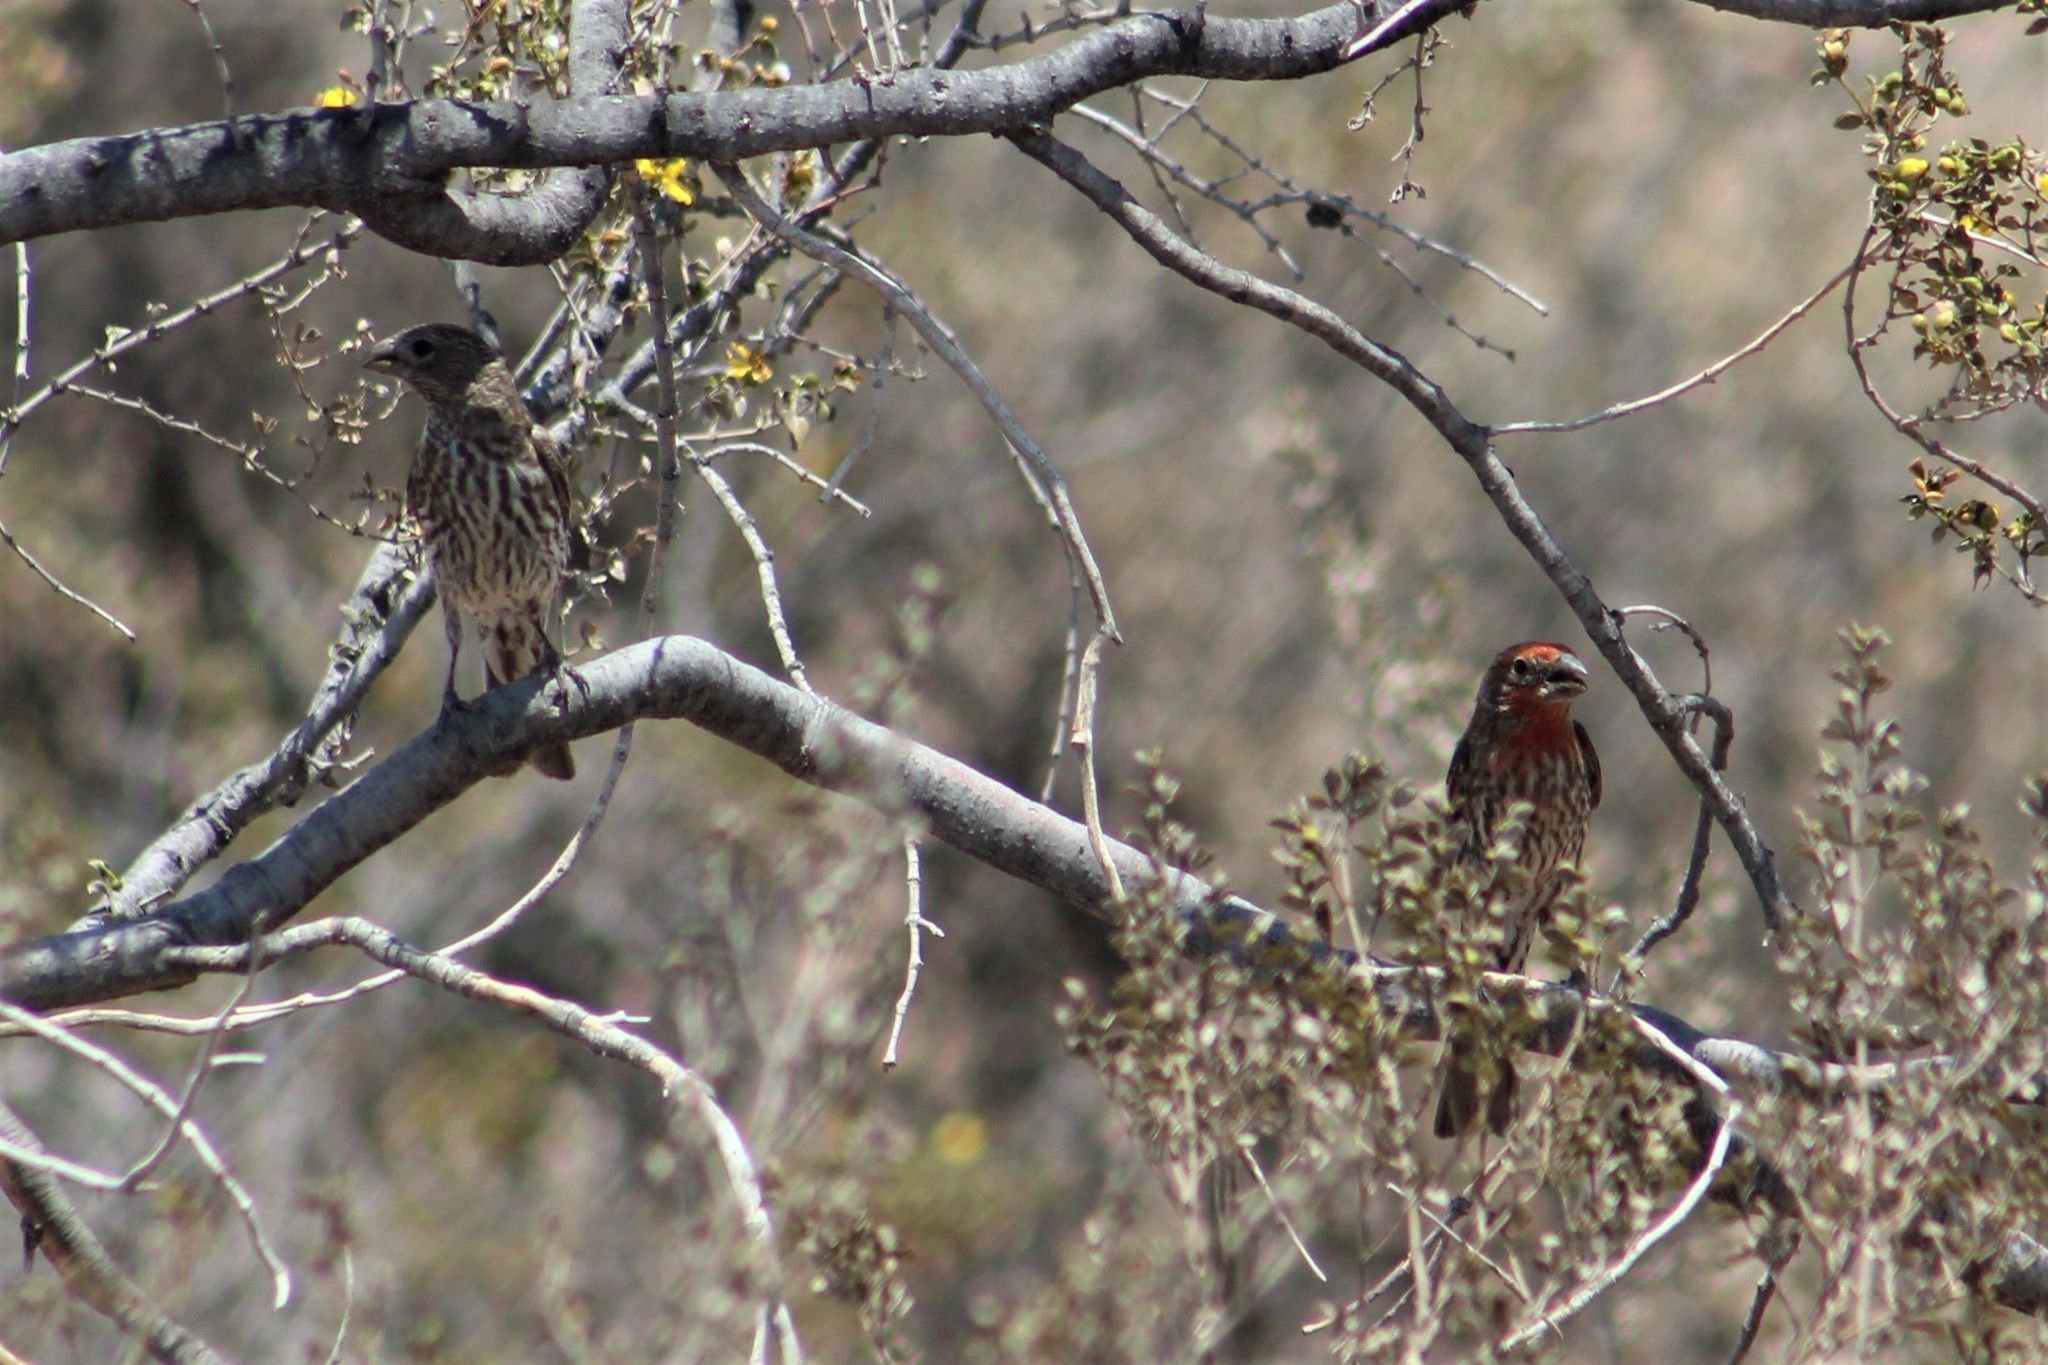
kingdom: Animalia
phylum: Chordata
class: Aves
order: Passeriformes
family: Fringillidae
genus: Haemorhous
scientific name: Haemorhous mexicanus
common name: House finch
